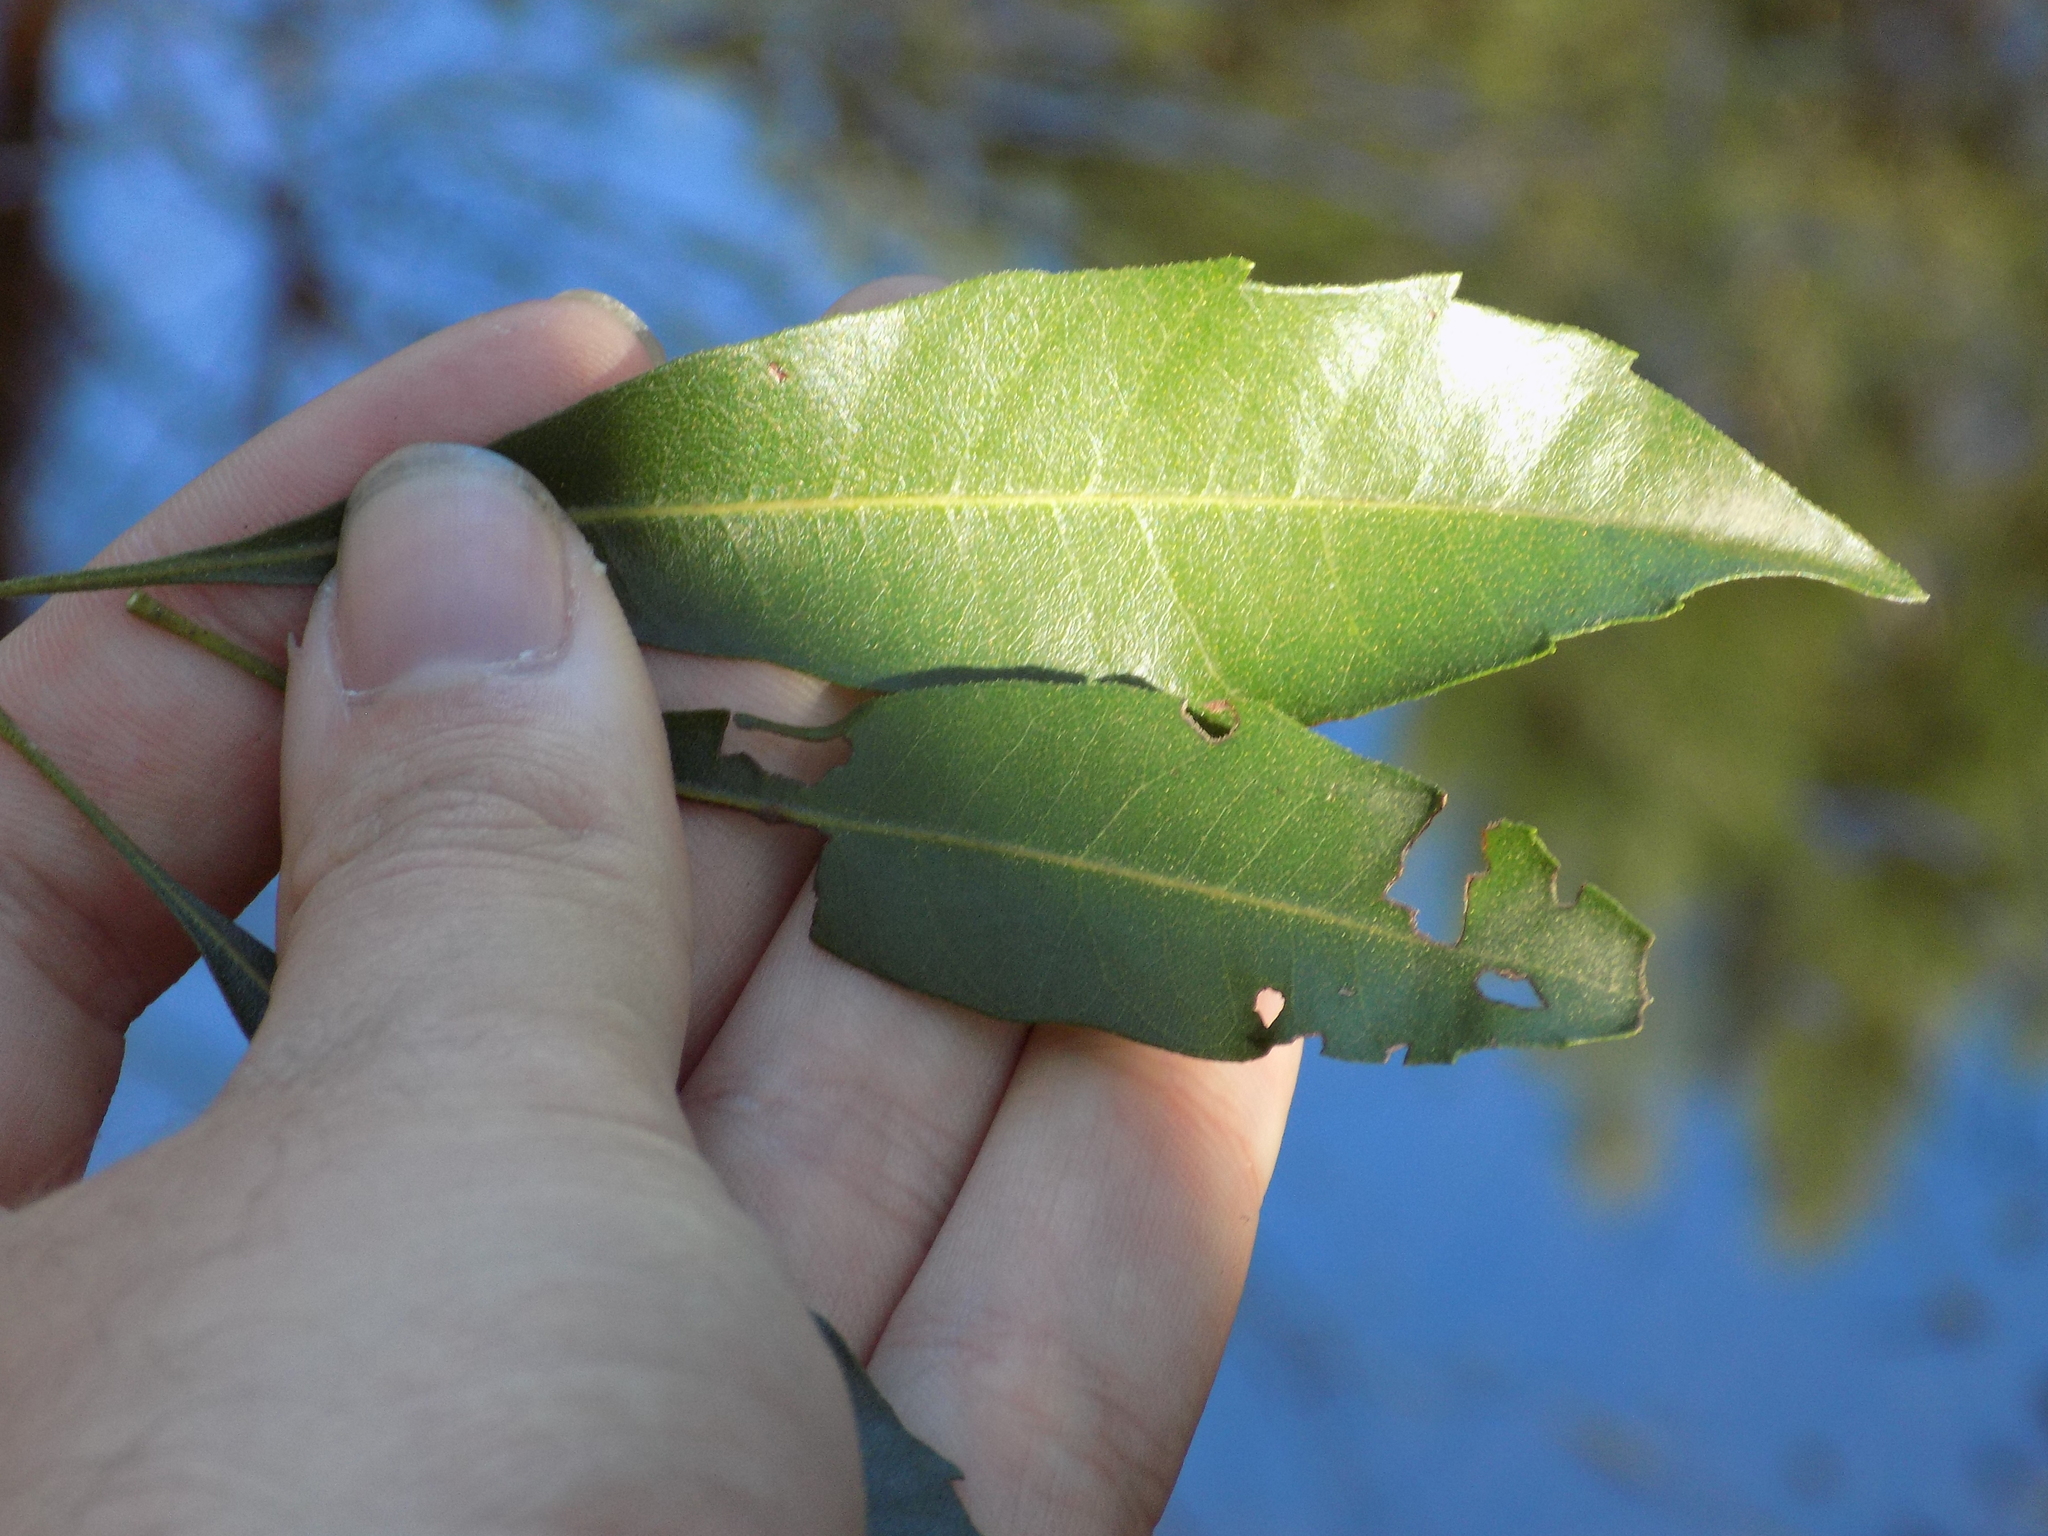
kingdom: Plantae
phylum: Tracheophyta
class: Magnoliopsida
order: Fagales
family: Myricaceae
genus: Morella
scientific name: Morella cerifera
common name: Wax myrtle
